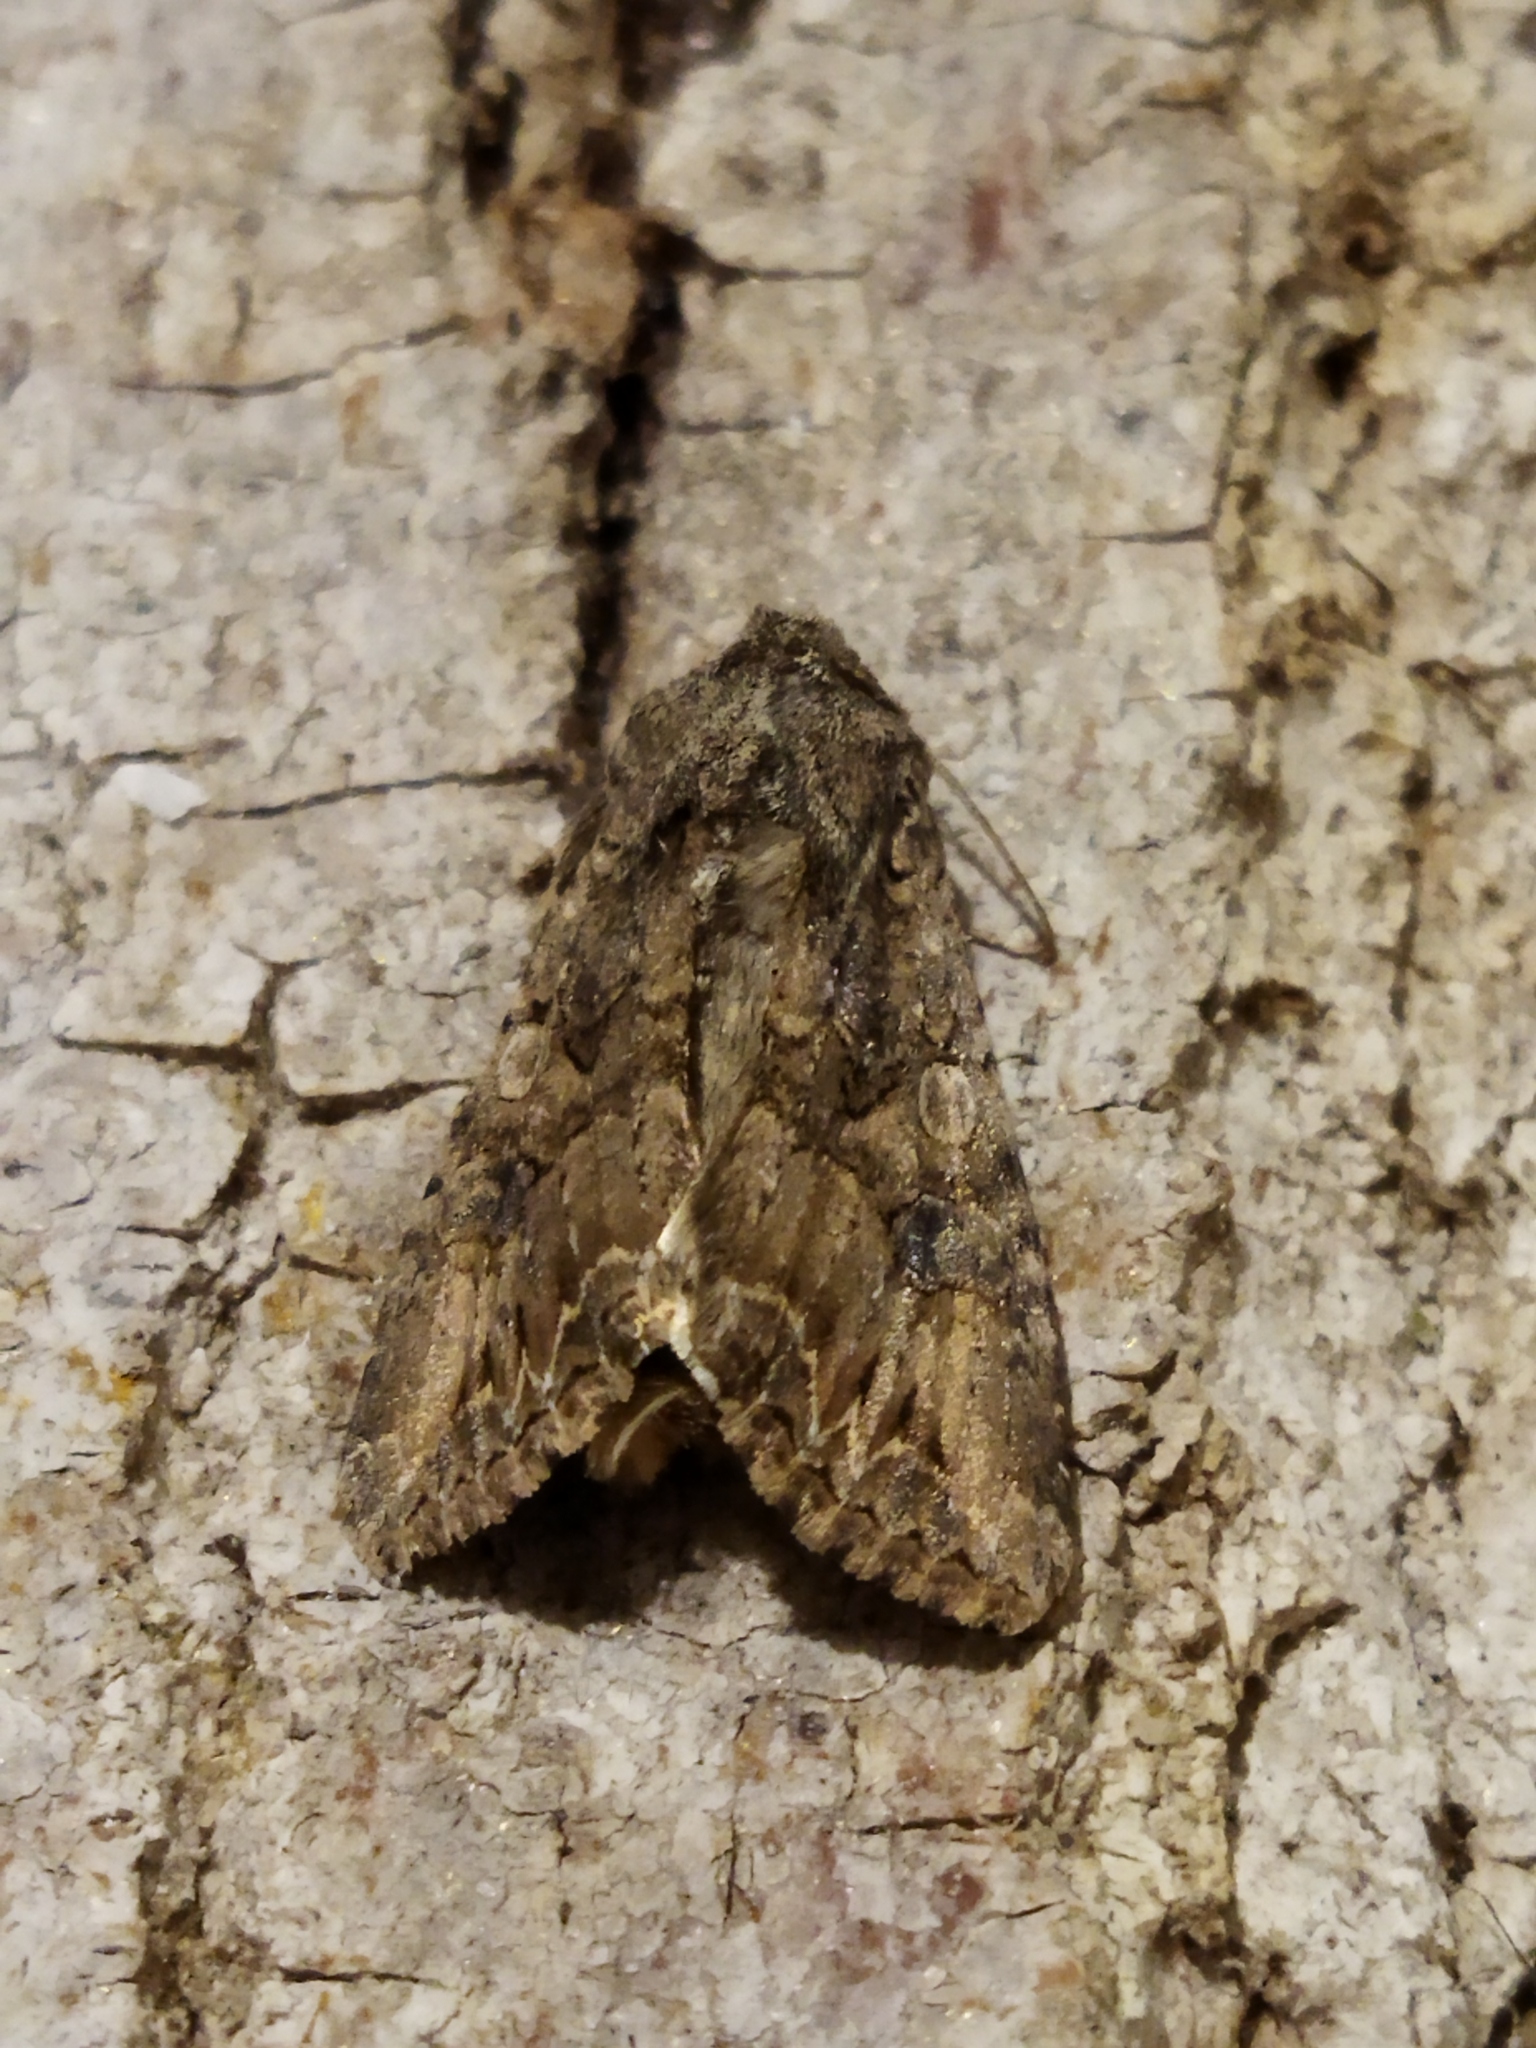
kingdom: Animalia
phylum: Arthropoda
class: Insecta
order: Lepidoptera
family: Noctuidae
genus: Anarta
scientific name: Anarta trifolii
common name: Clover cutworm moth
